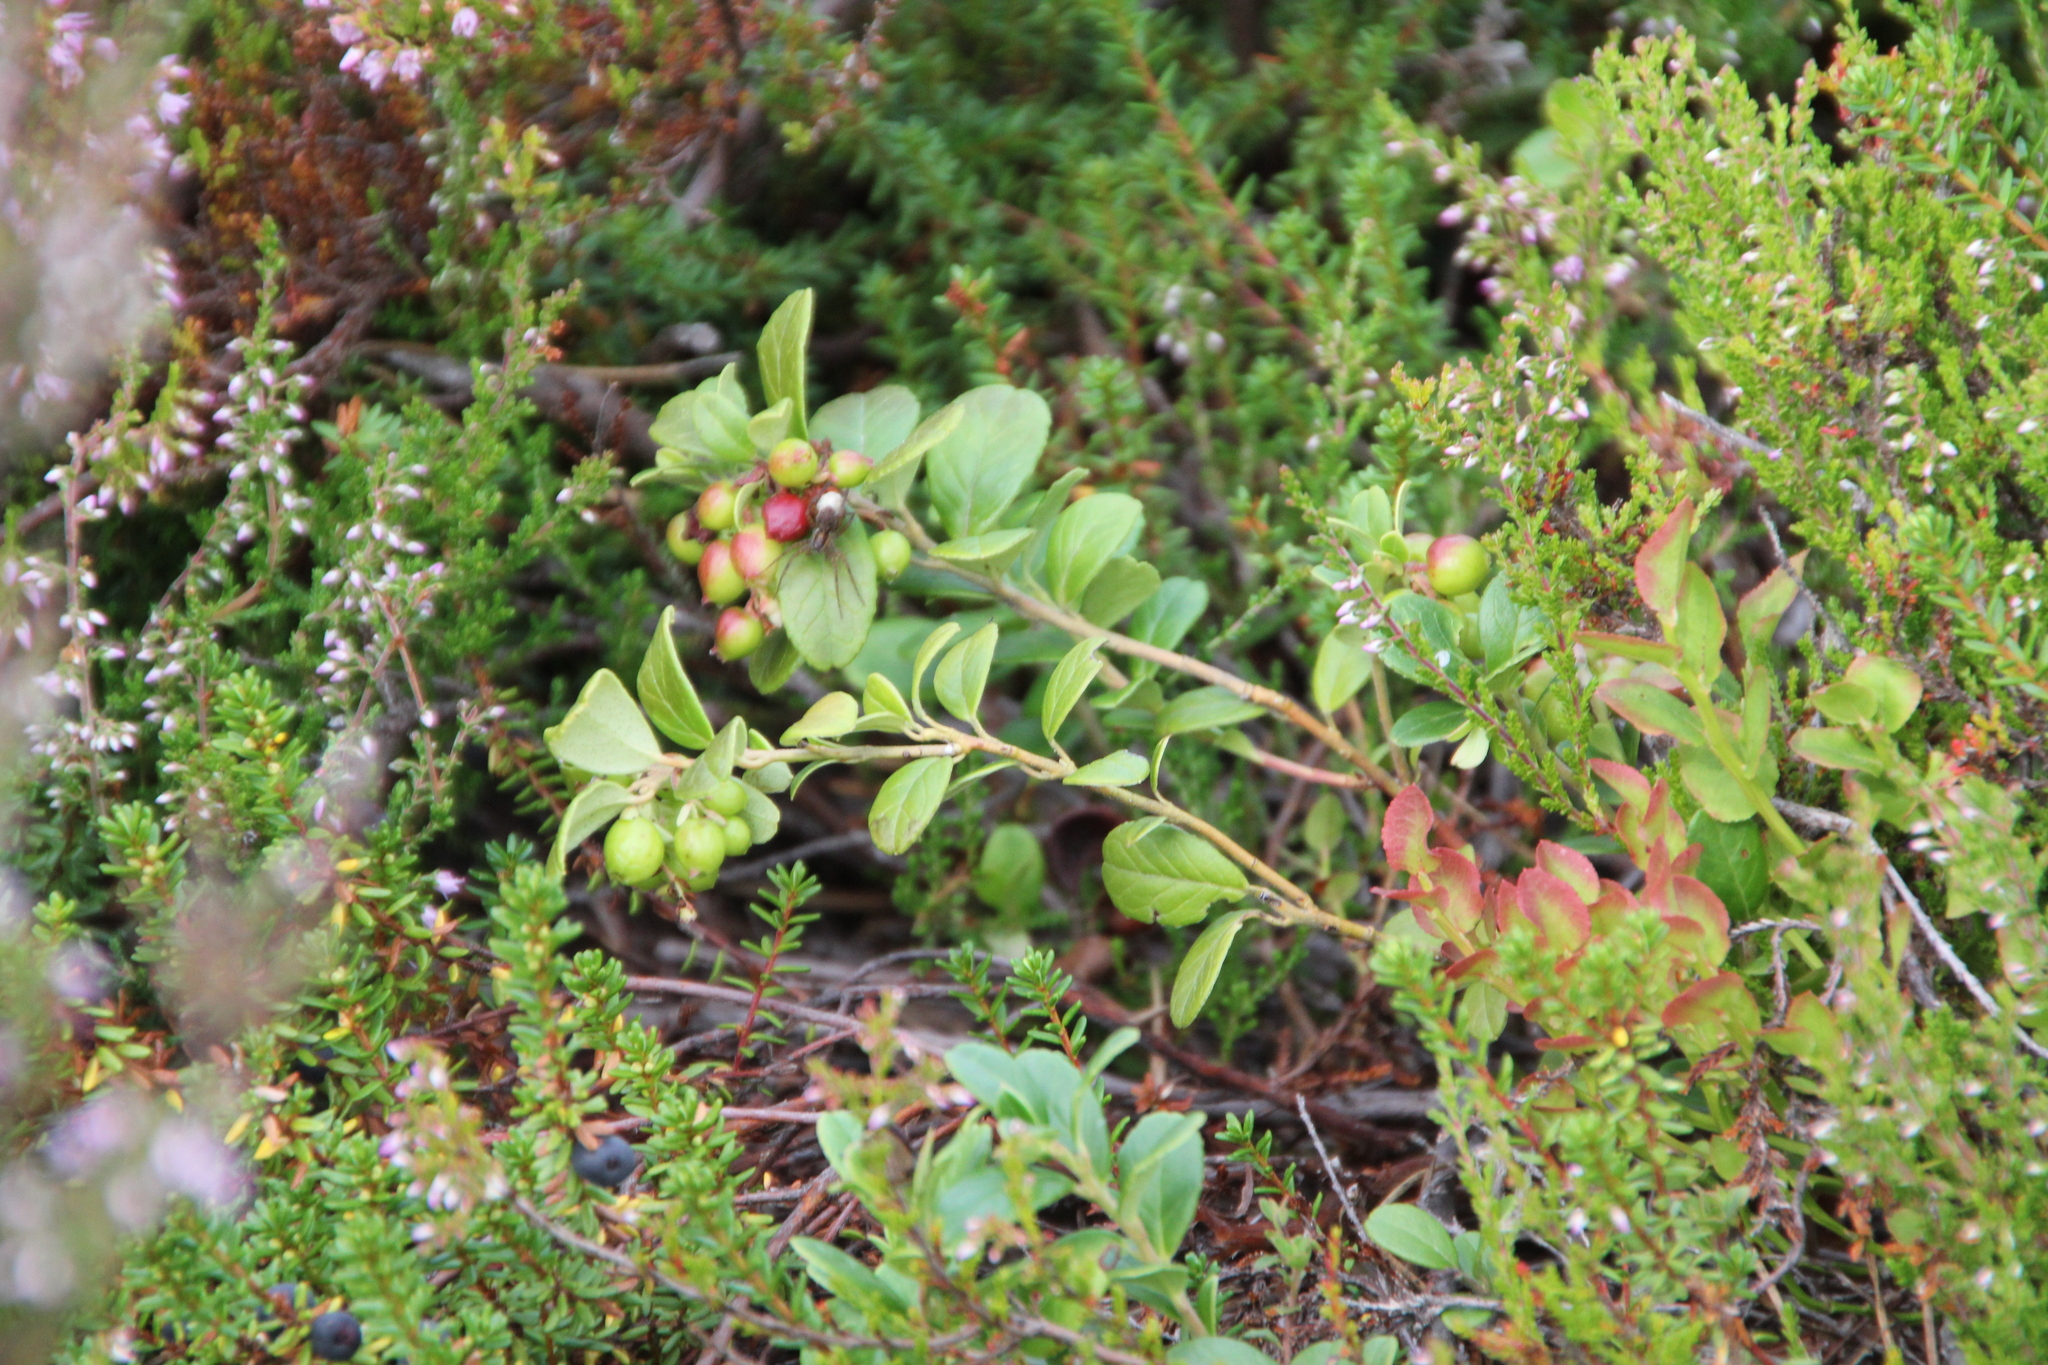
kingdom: Plantae
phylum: Tracheophyta
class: Magnoliopsida
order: Ericales
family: Ericaceae
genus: Vaccinium
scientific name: Vaccinium vitis-idaea
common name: Cowberry
